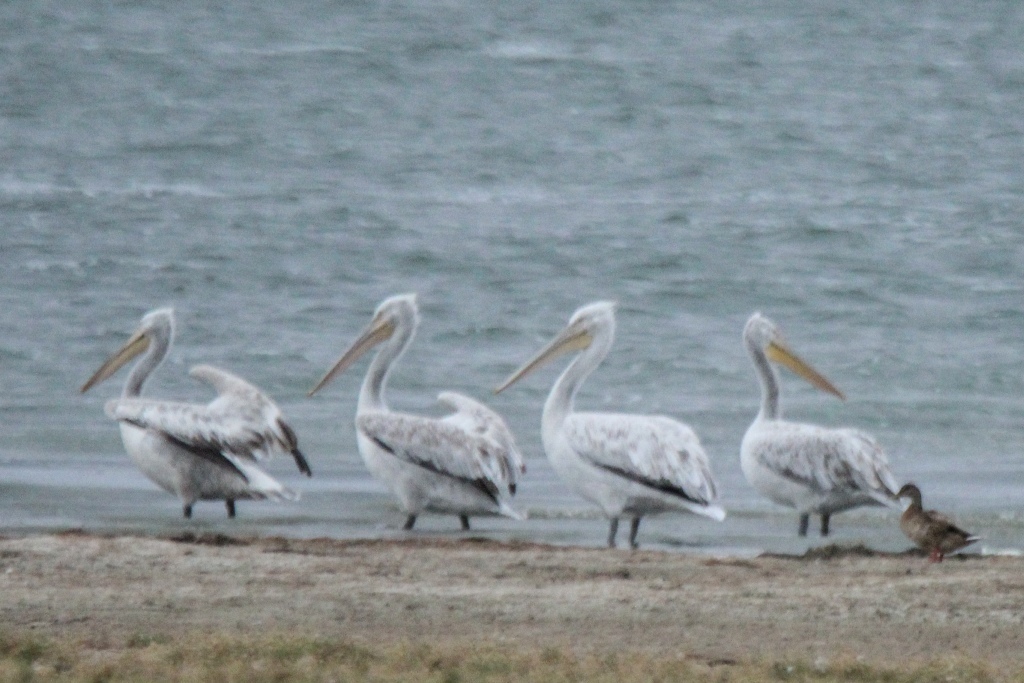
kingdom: Animalia
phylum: Chordata
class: Aves
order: Pelecaniformes
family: Pelecanidae
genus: Pelecanus
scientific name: Pelecanus crispus
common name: Dalmatian pelican
